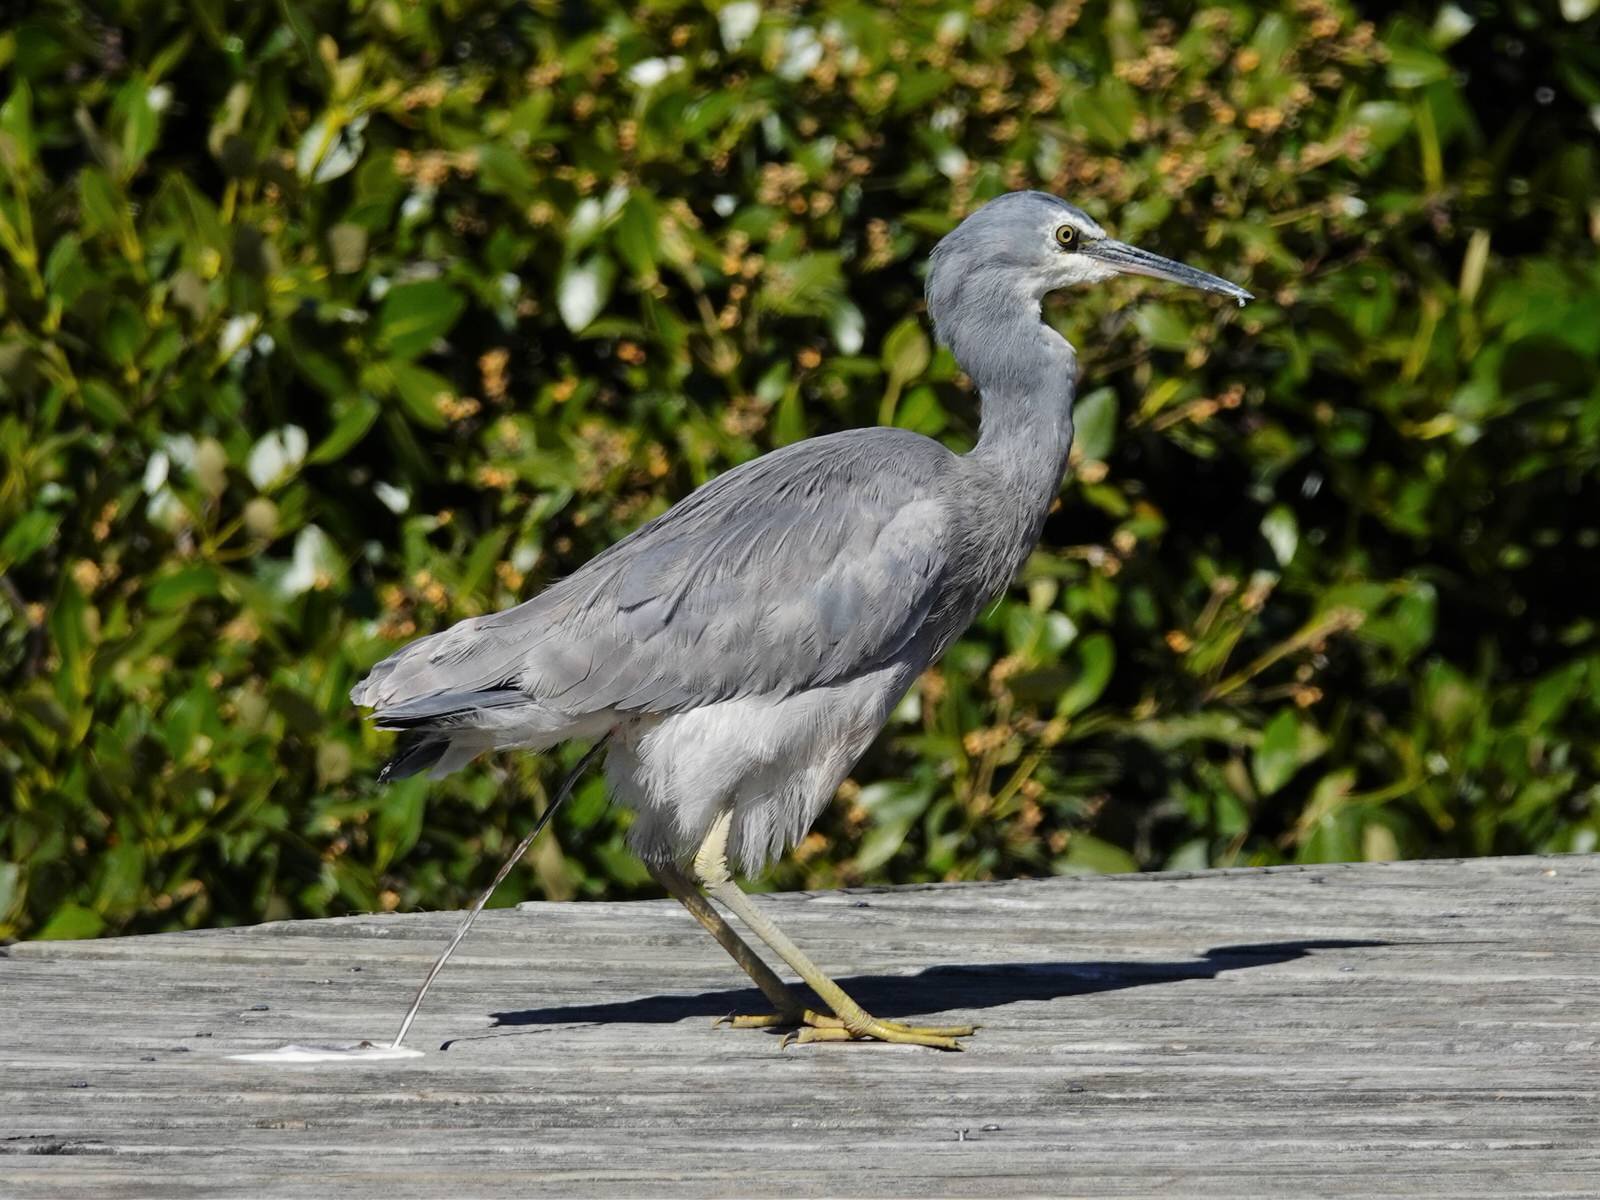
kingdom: Animalia
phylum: Chordata
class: Aves
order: Pelecaniformes
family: Ardeidae
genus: Egretta
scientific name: Egretta novaehollandiae
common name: White-faced heron
